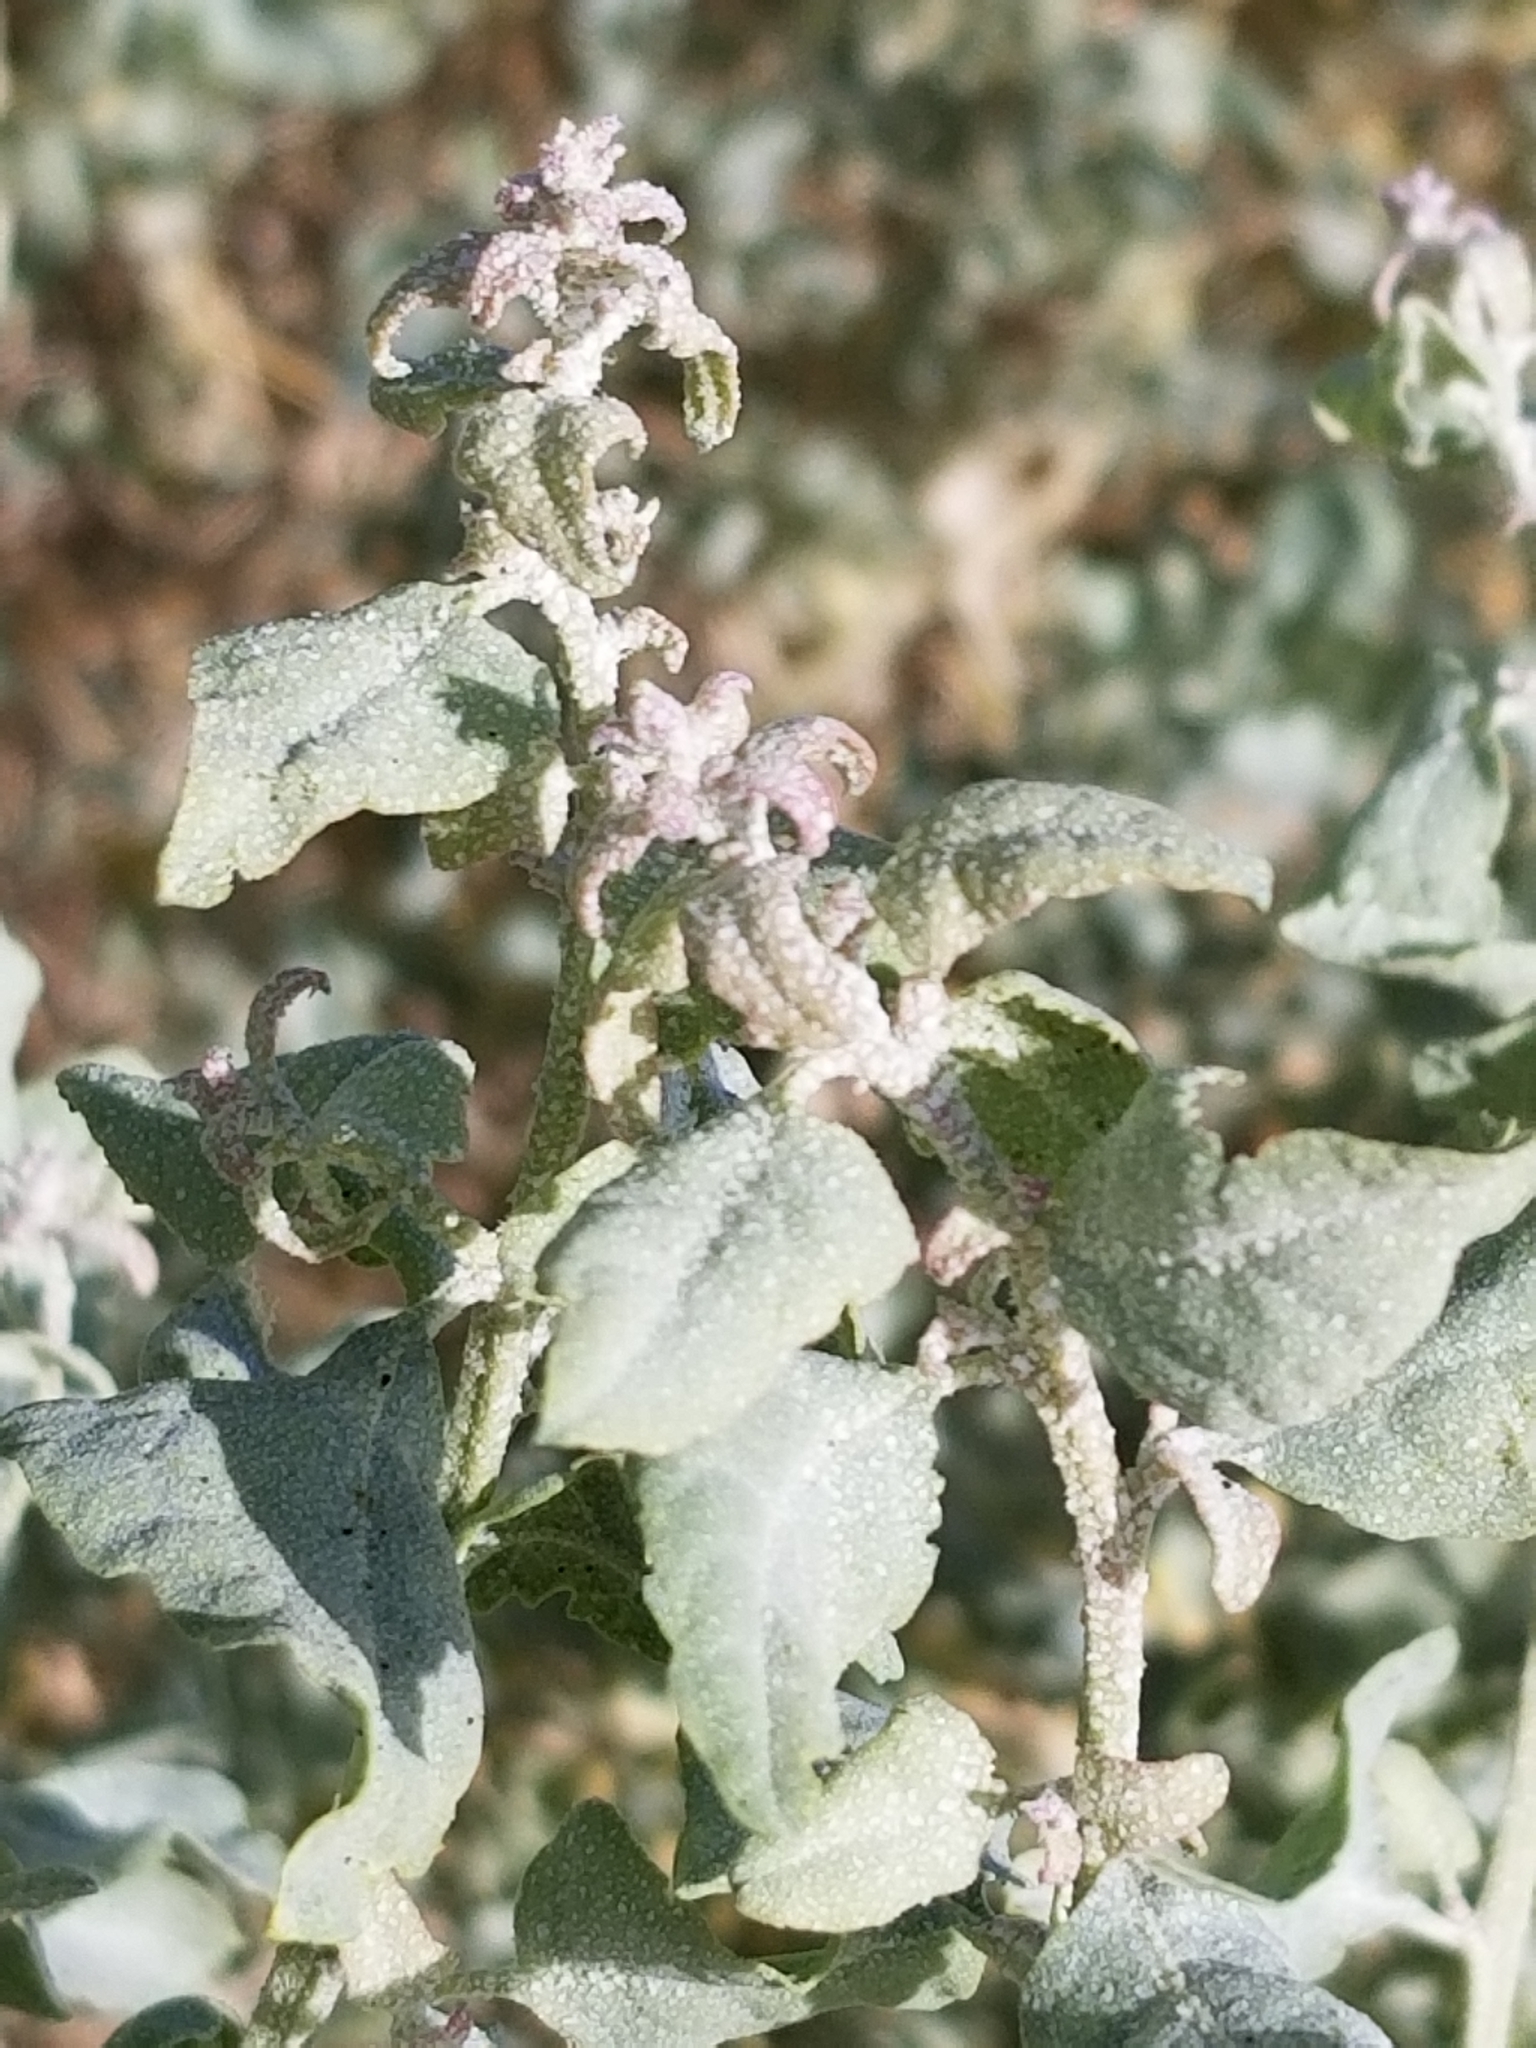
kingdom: Plantae
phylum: Tracheophyta
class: Magnoliopsida
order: Caryophyllales
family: Amaranthaceae
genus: Atriplex
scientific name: Atriplex lentiformis
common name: Big saltbush
